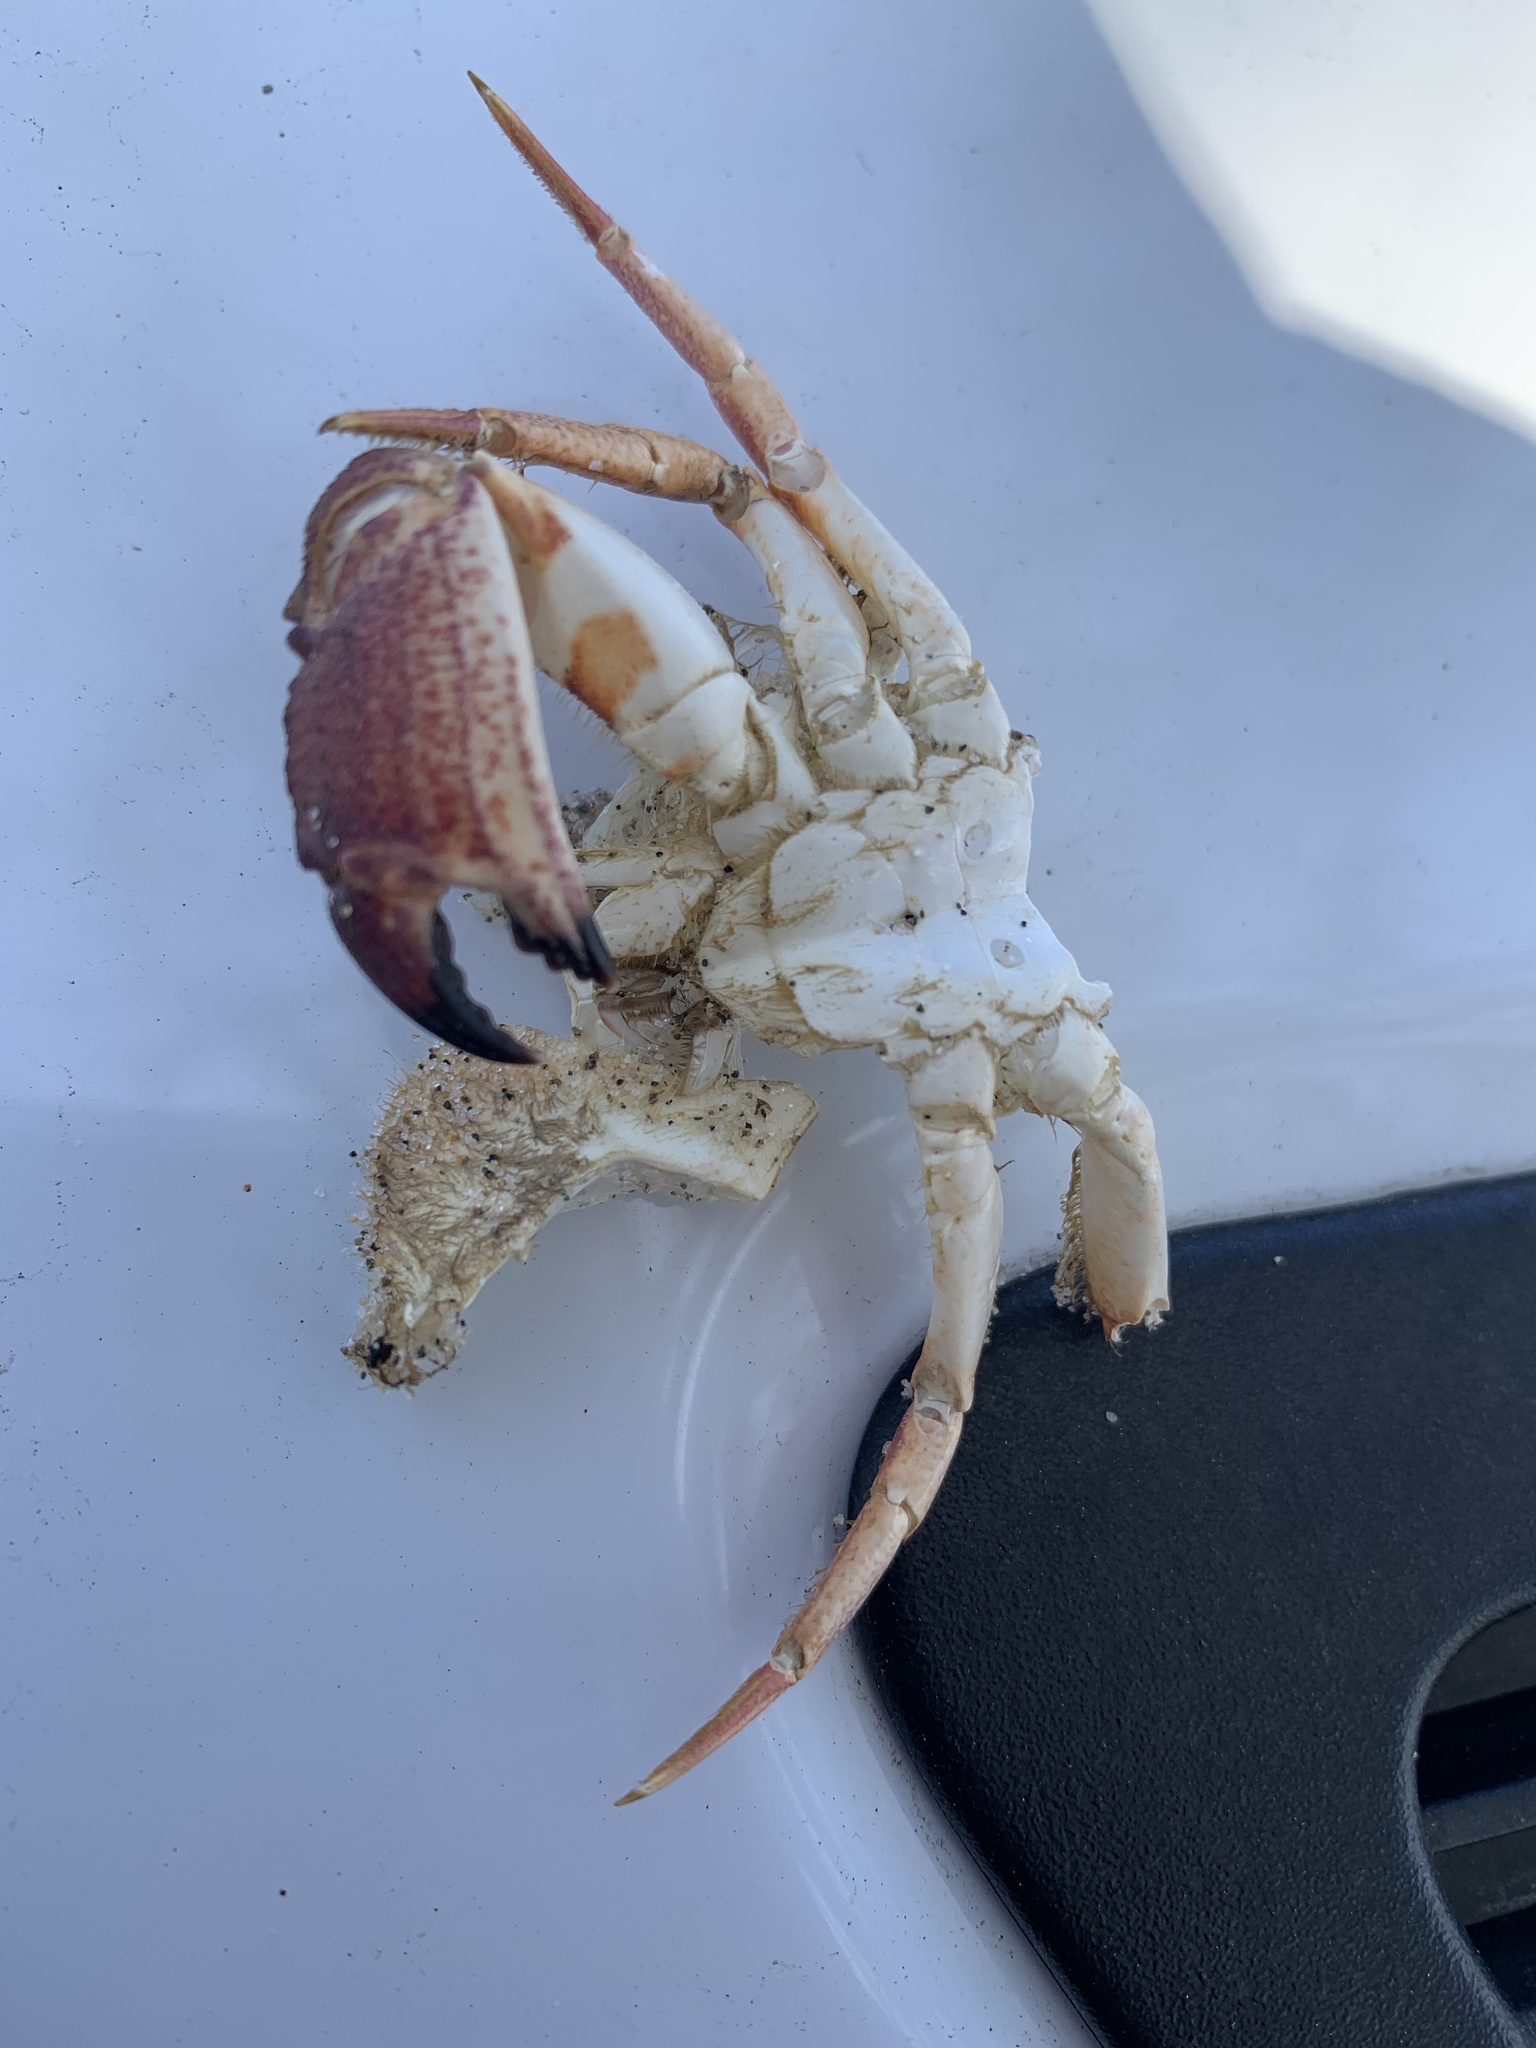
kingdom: Animalia
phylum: Arthropoda
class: Malacostraca
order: Decapoda
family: Cancridae
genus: Metacarcinus
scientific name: Metacarcinus anthonyi
